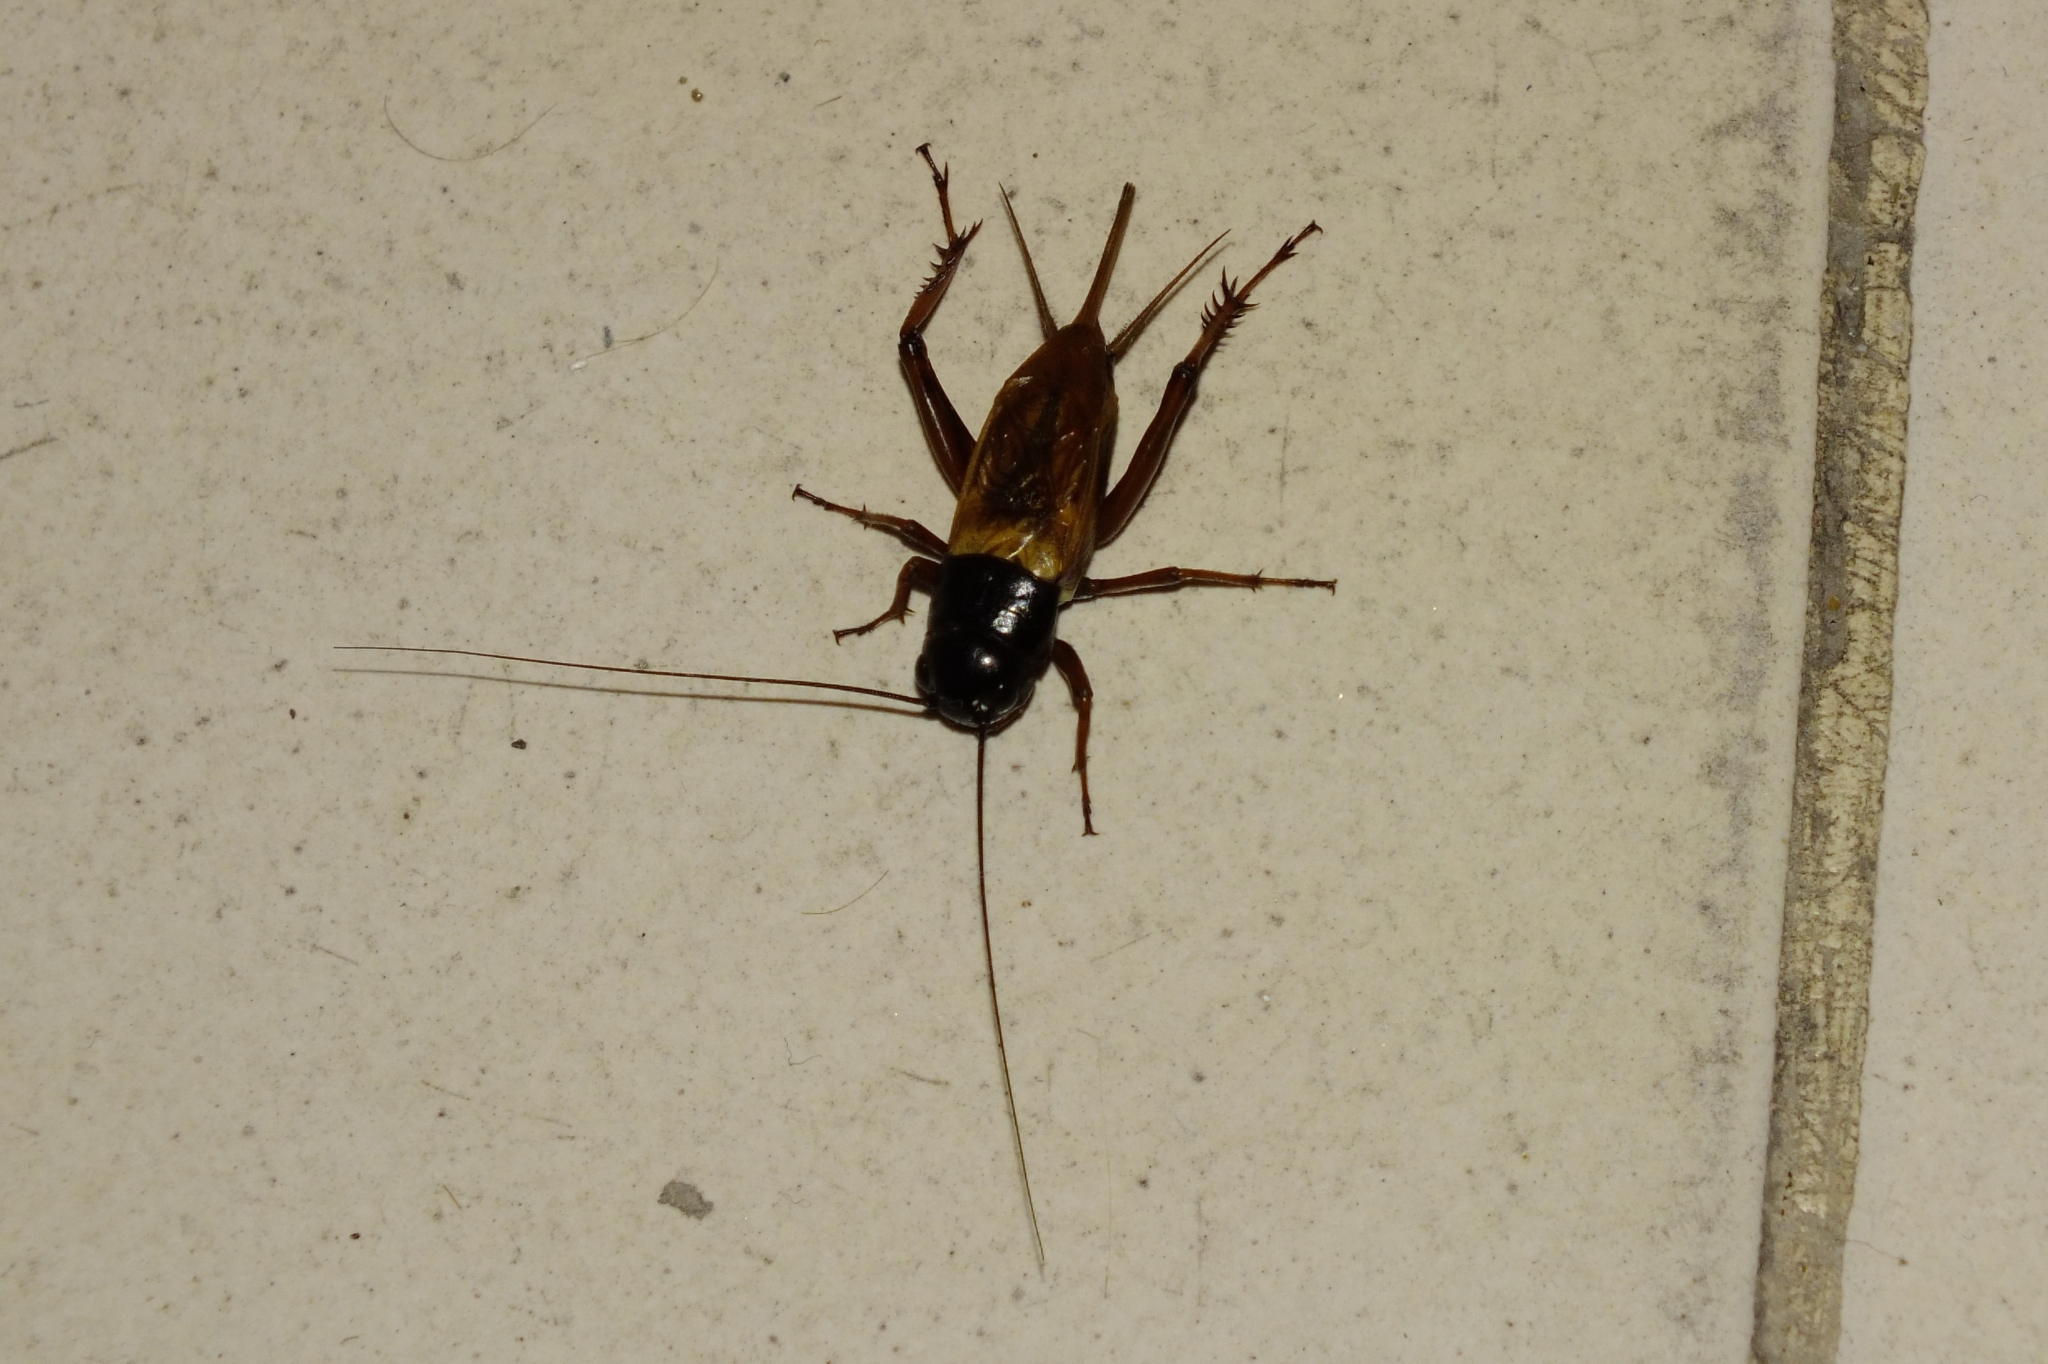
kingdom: Animalia
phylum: Arthropoda
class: Insecta
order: Orthoptera
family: Gryllidae
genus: Gryllus
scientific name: Gryllus bimaculatus
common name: Two-spotted cricket
